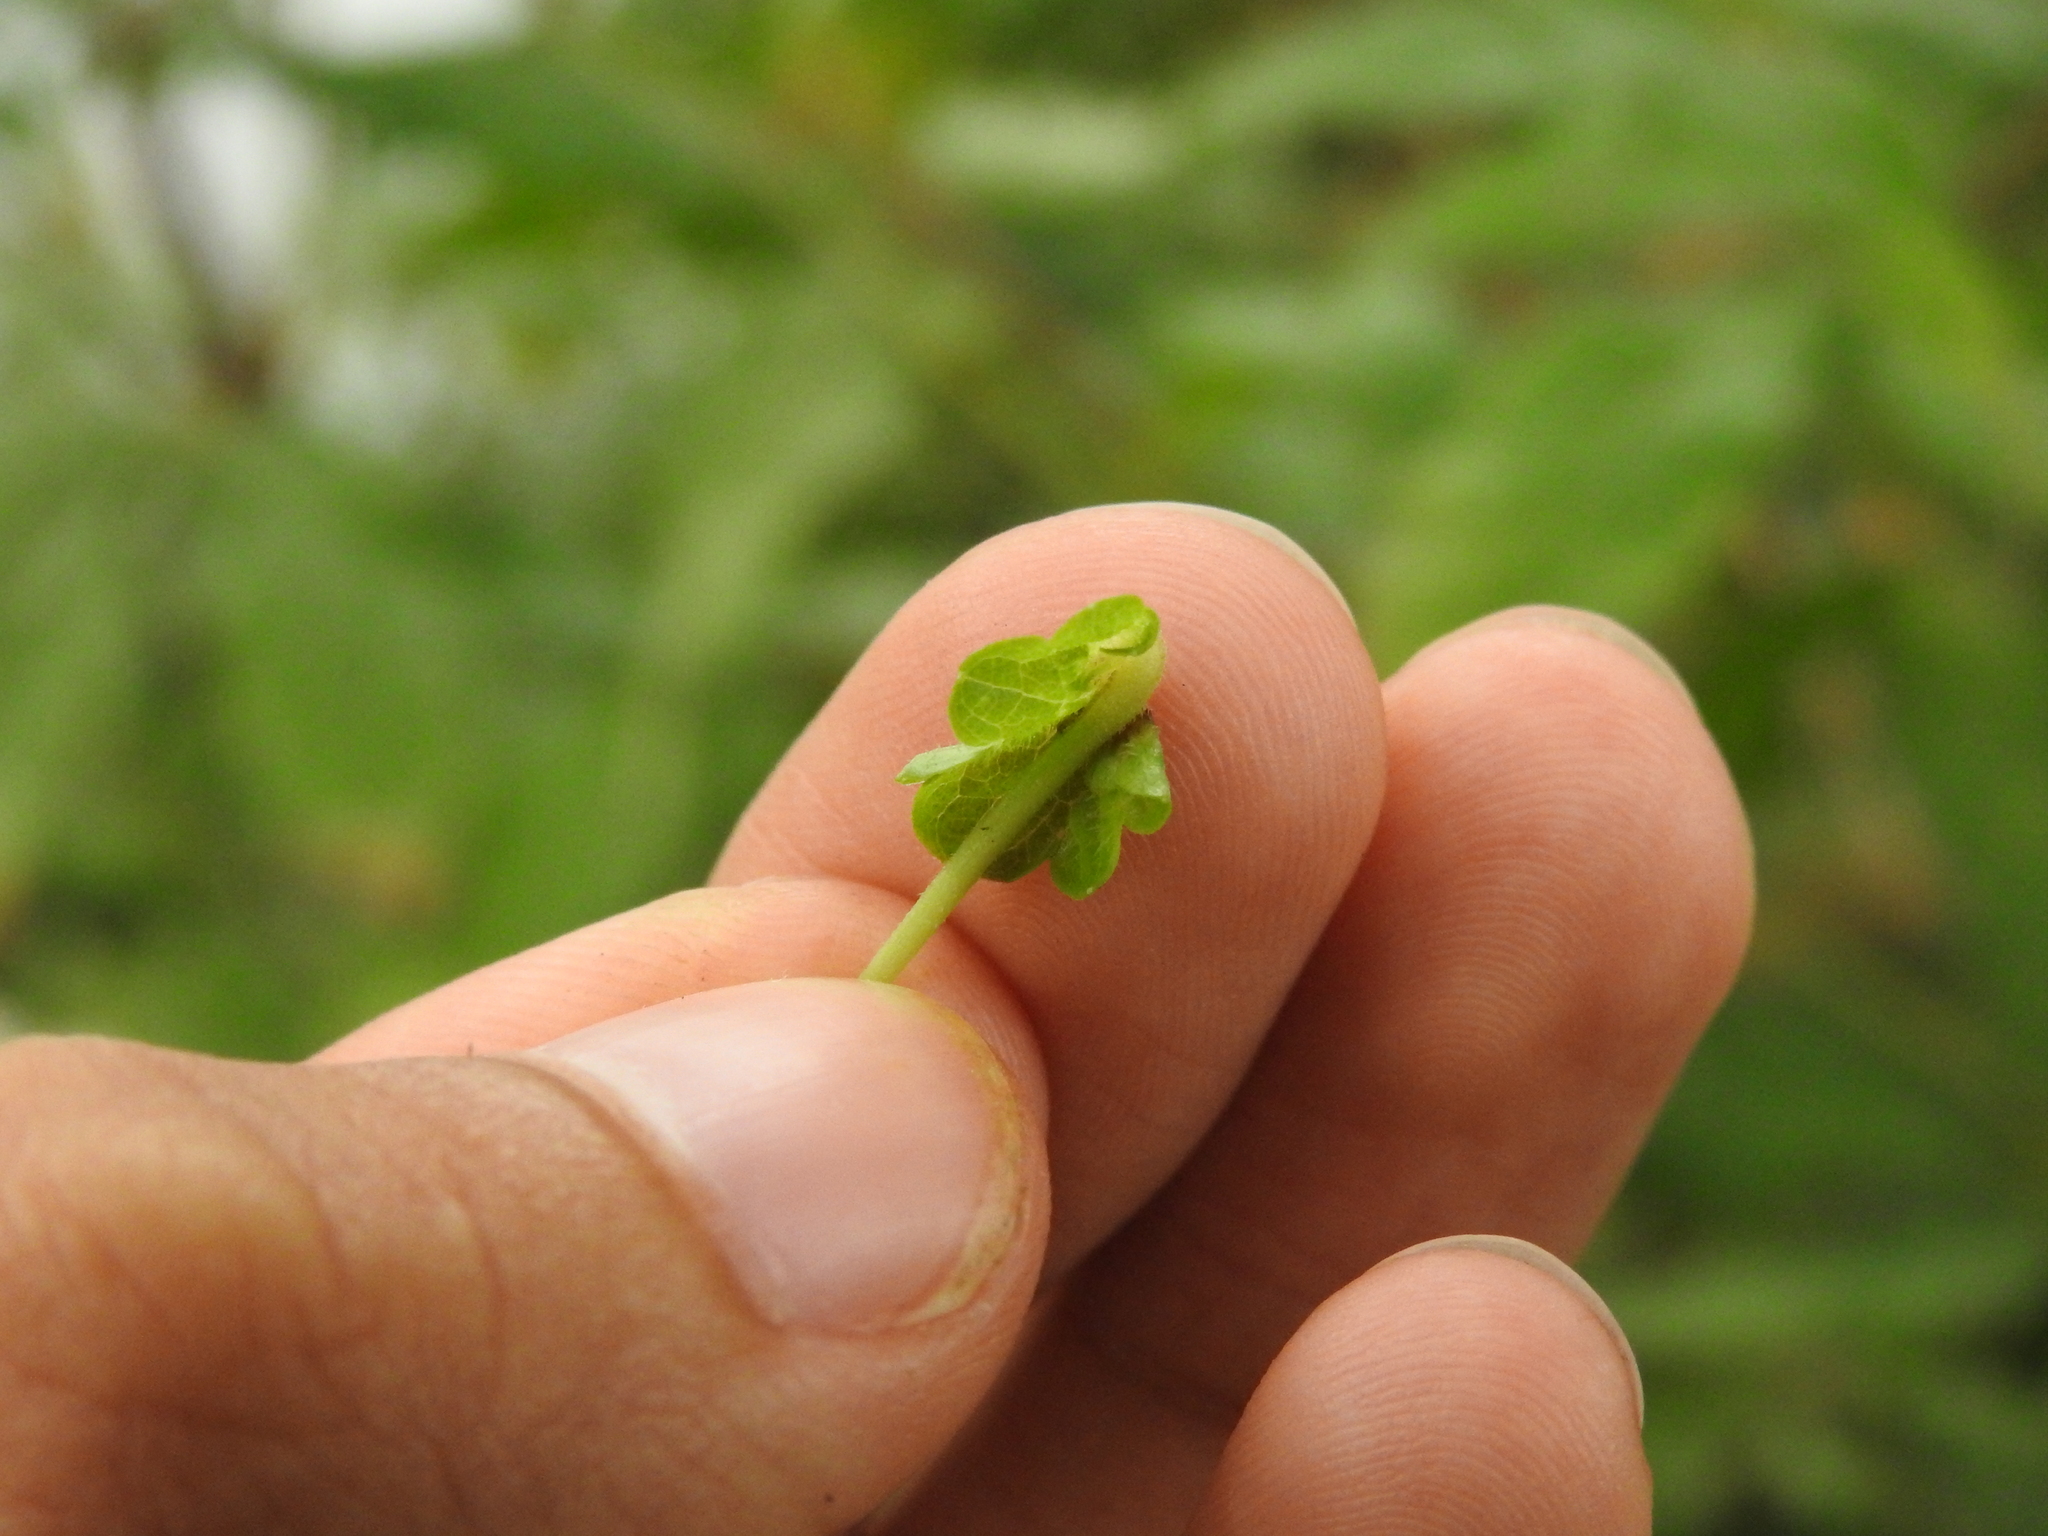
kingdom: Animalia
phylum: Arthropoda
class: Insecta
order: Diptera
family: Cecidomyiidae
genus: Dasineura
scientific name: Dasineura glechomae
